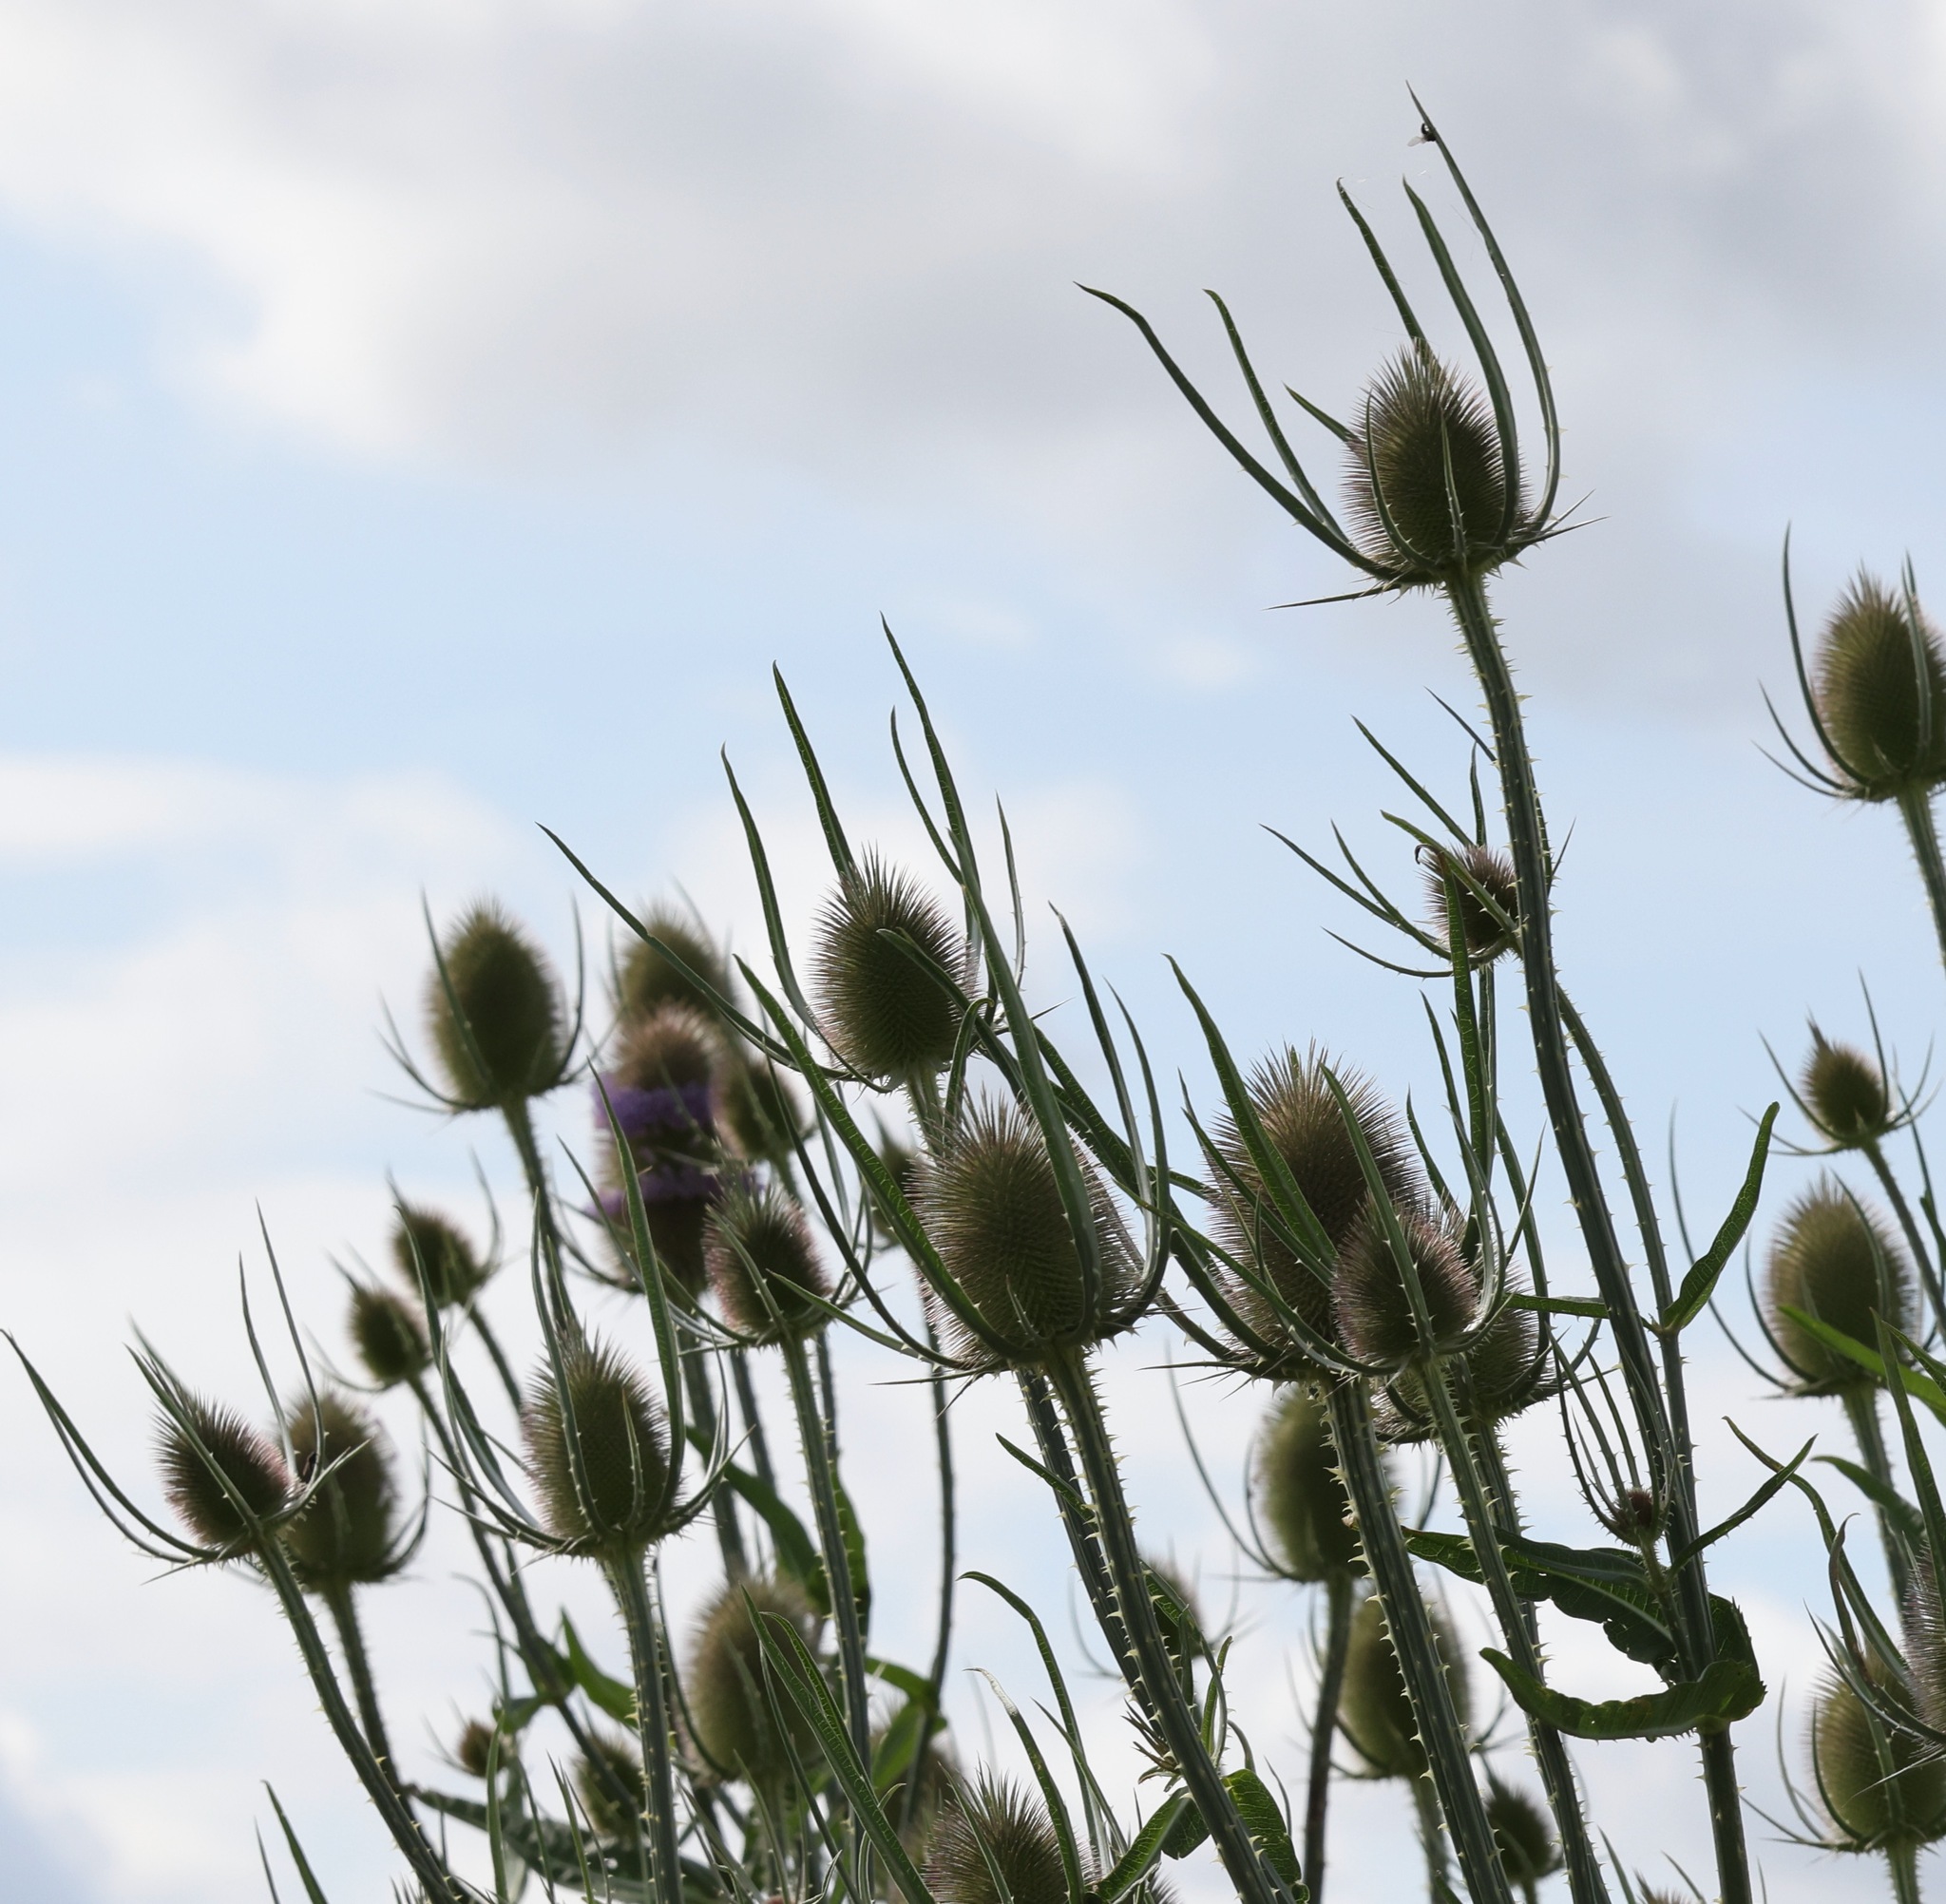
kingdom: Plantae
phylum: Tracheophyta
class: Magnoliopsida
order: Dipsacales
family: Caprifoliaceae
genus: Dipsacus
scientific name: Dipsacus fullonum
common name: Teasel
